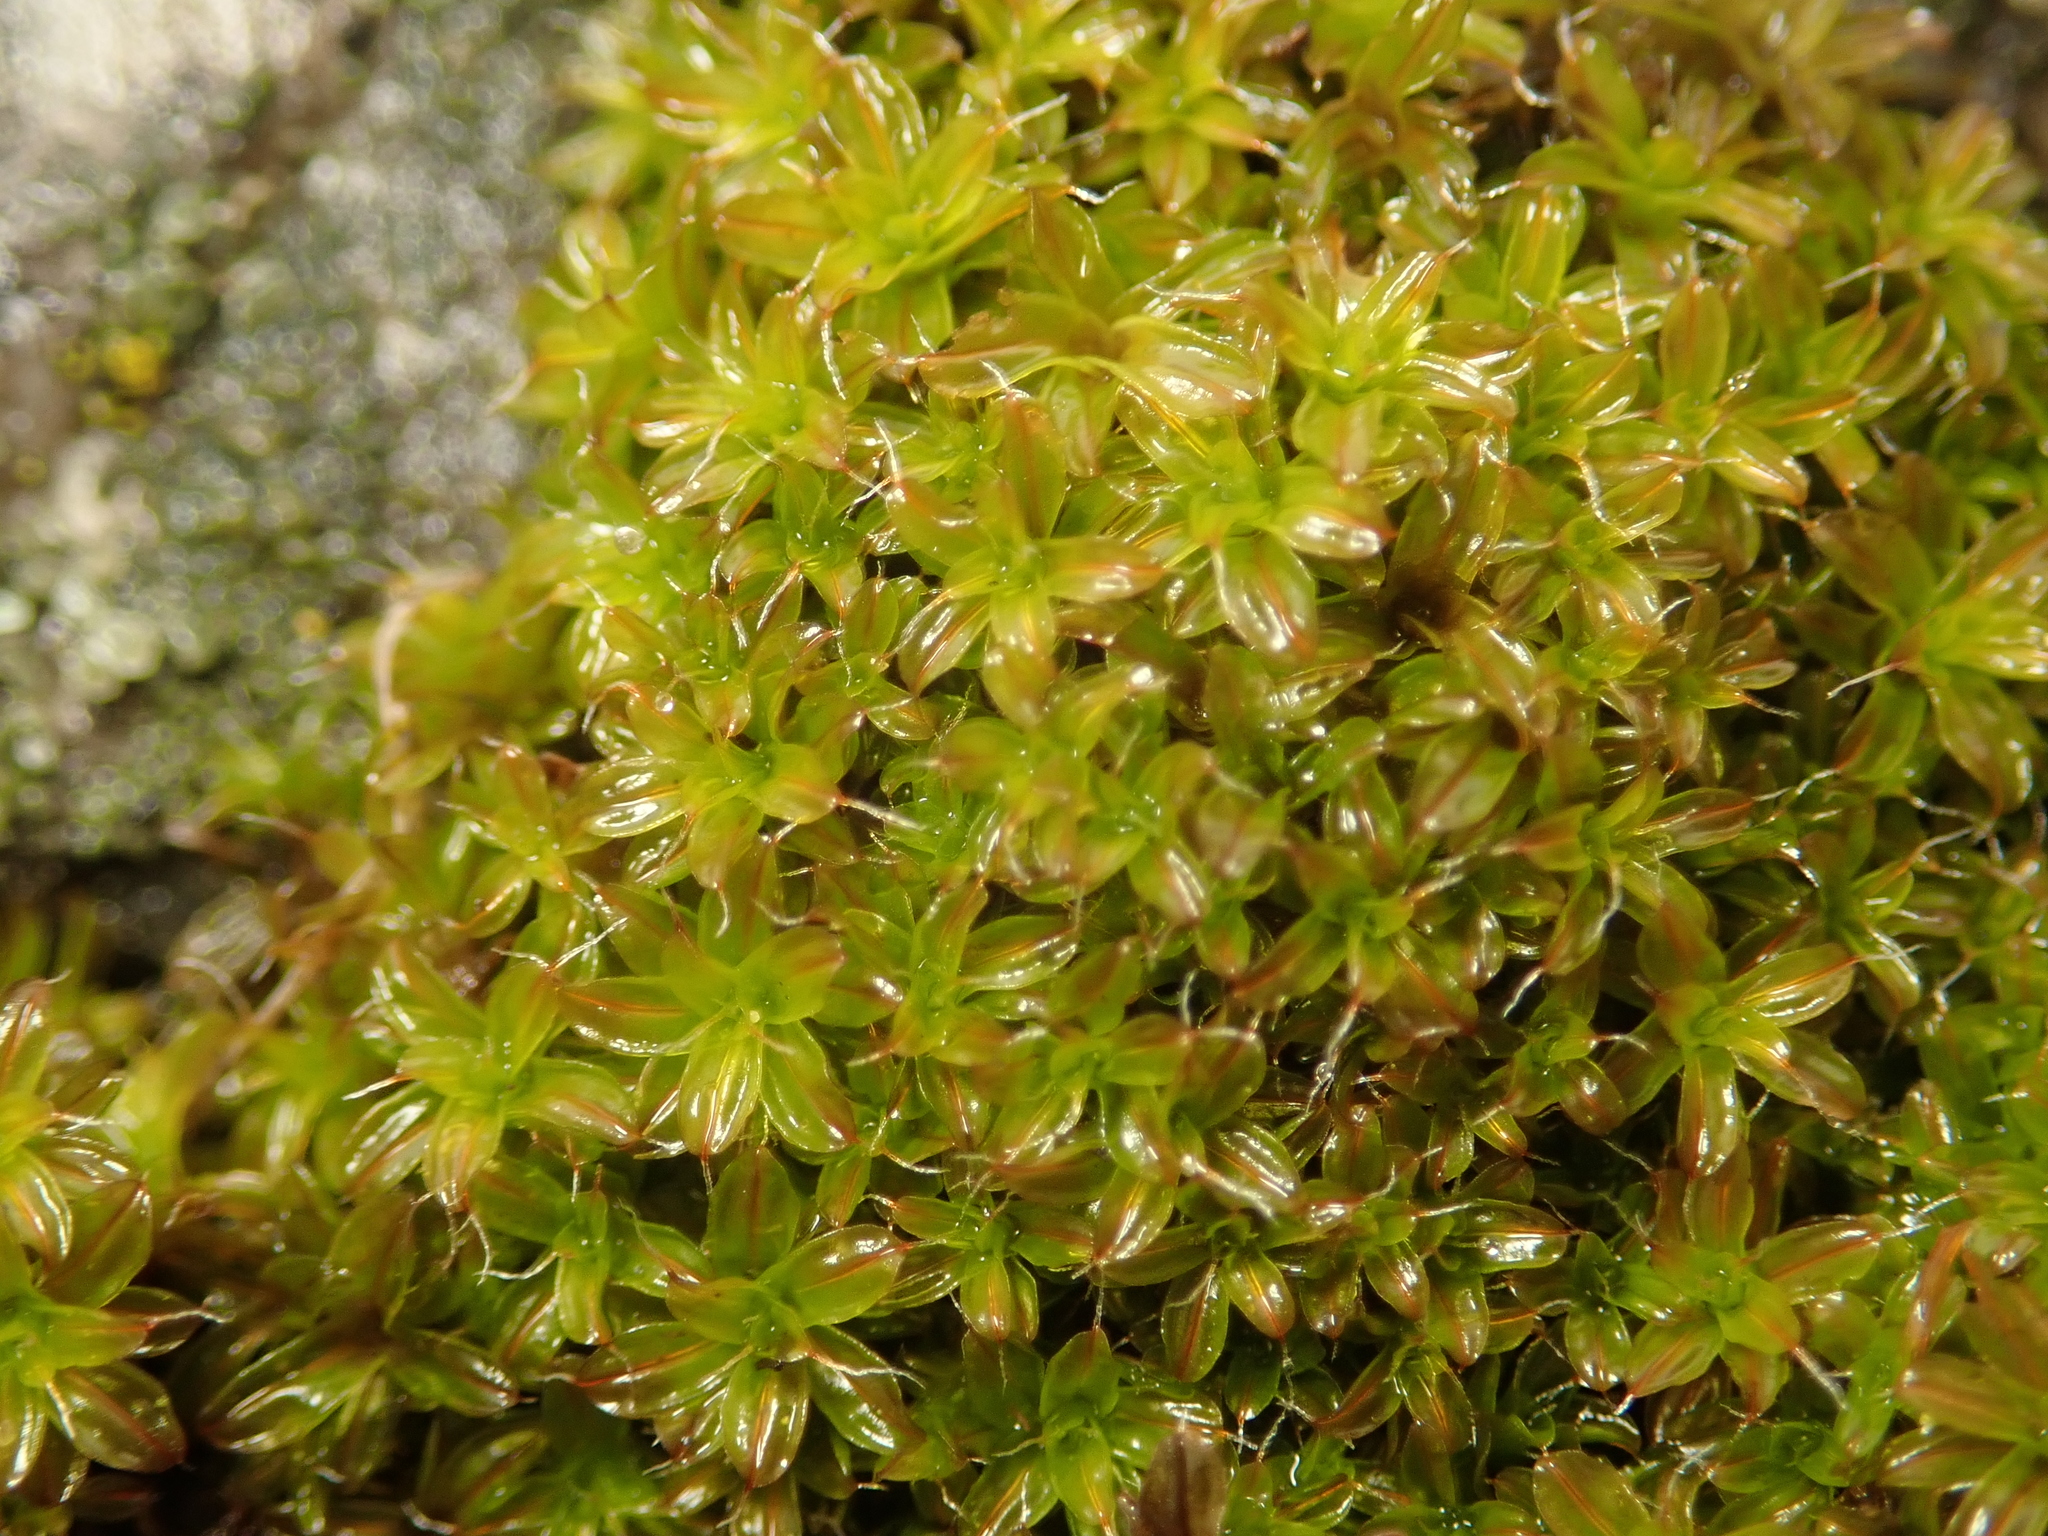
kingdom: Plantae
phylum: Bryophyta
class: Bryopsida
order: Pottiales
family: Pottiaceae
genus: Syntrichia
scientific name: Syntrichia ruralis
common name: Sidewalk screw moss
